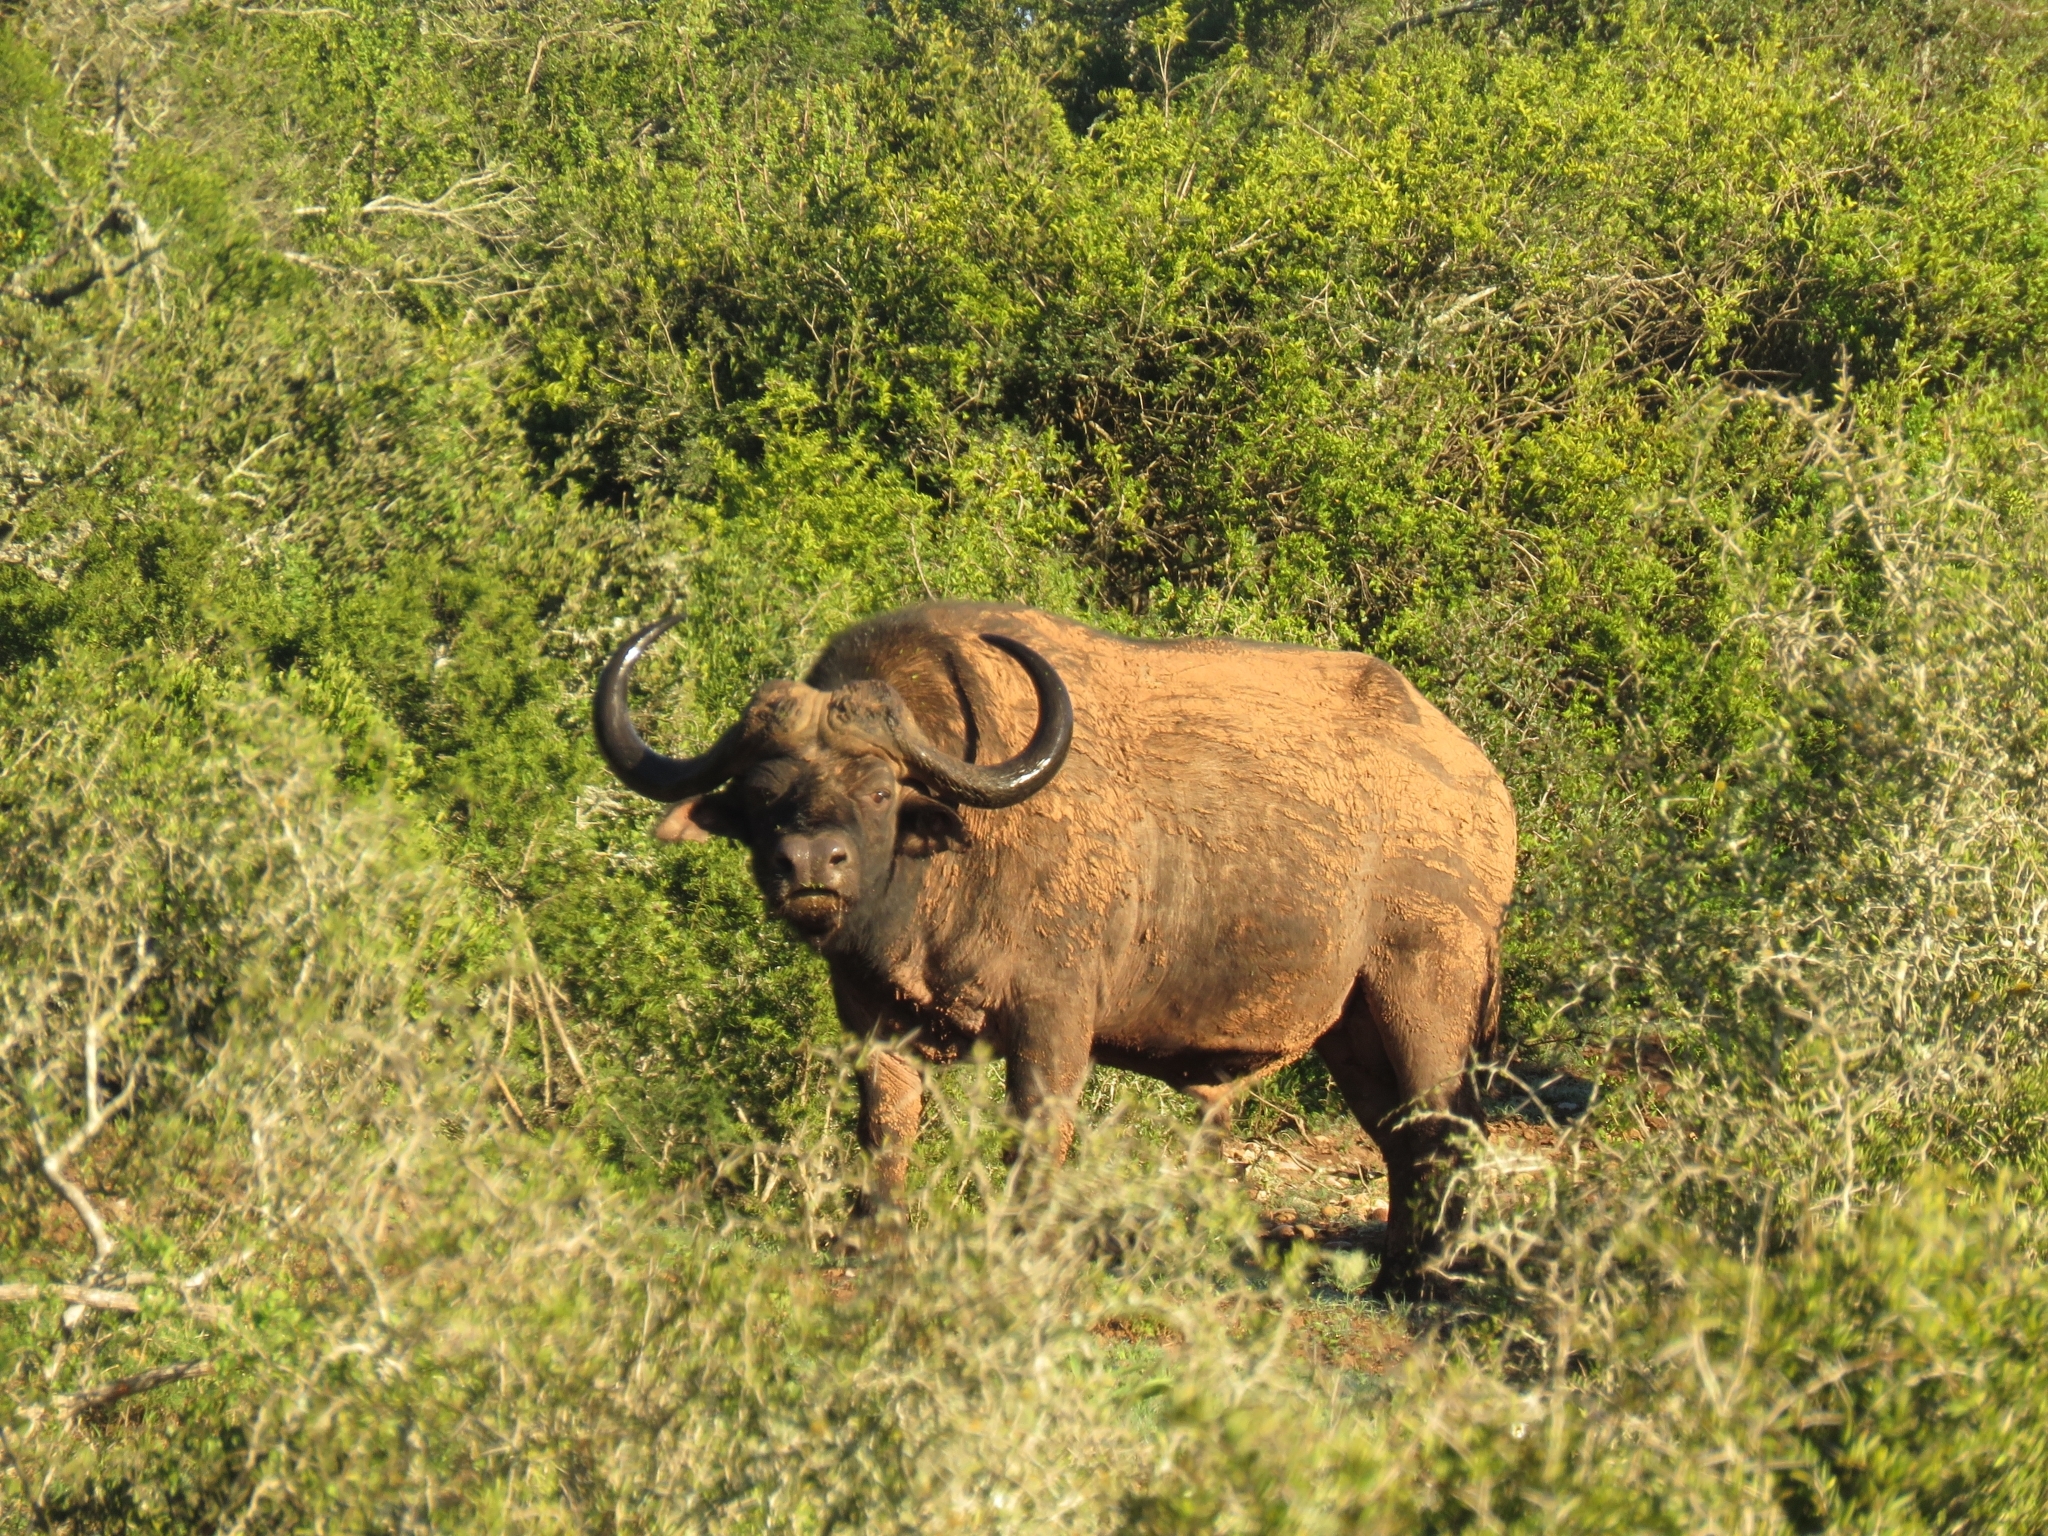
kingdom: Animalia
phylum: Chordata
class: Mammalia
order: Artiodactyla
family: Bovidae
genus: Syncerus
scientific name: Syncerus caffer
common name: African buffalo
